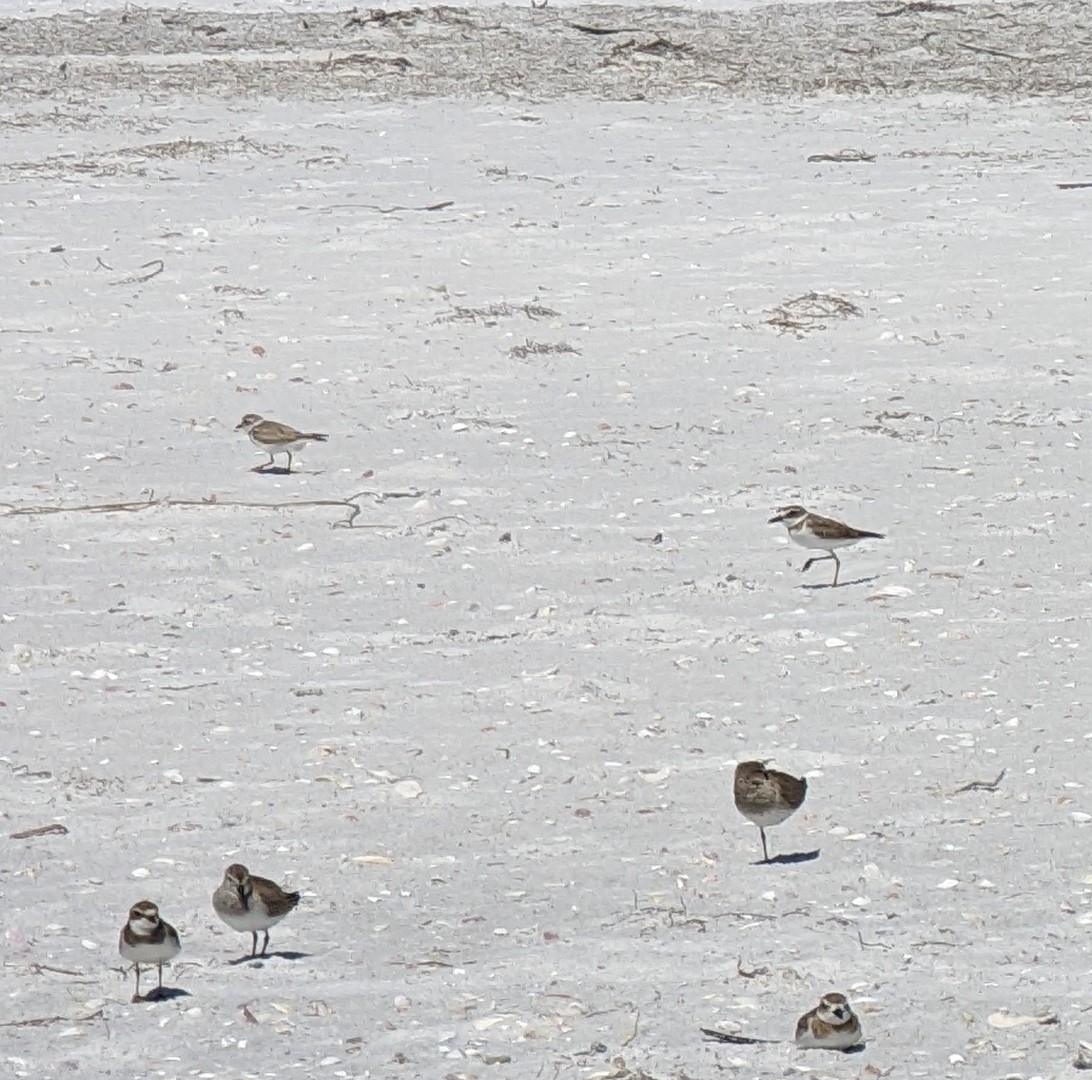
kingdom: Animalia
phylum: Chordata
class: Aves
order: Charadriiformes
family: Charadriidae
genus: Charadrius
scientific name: Charadrius melodus
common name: Piping plover
